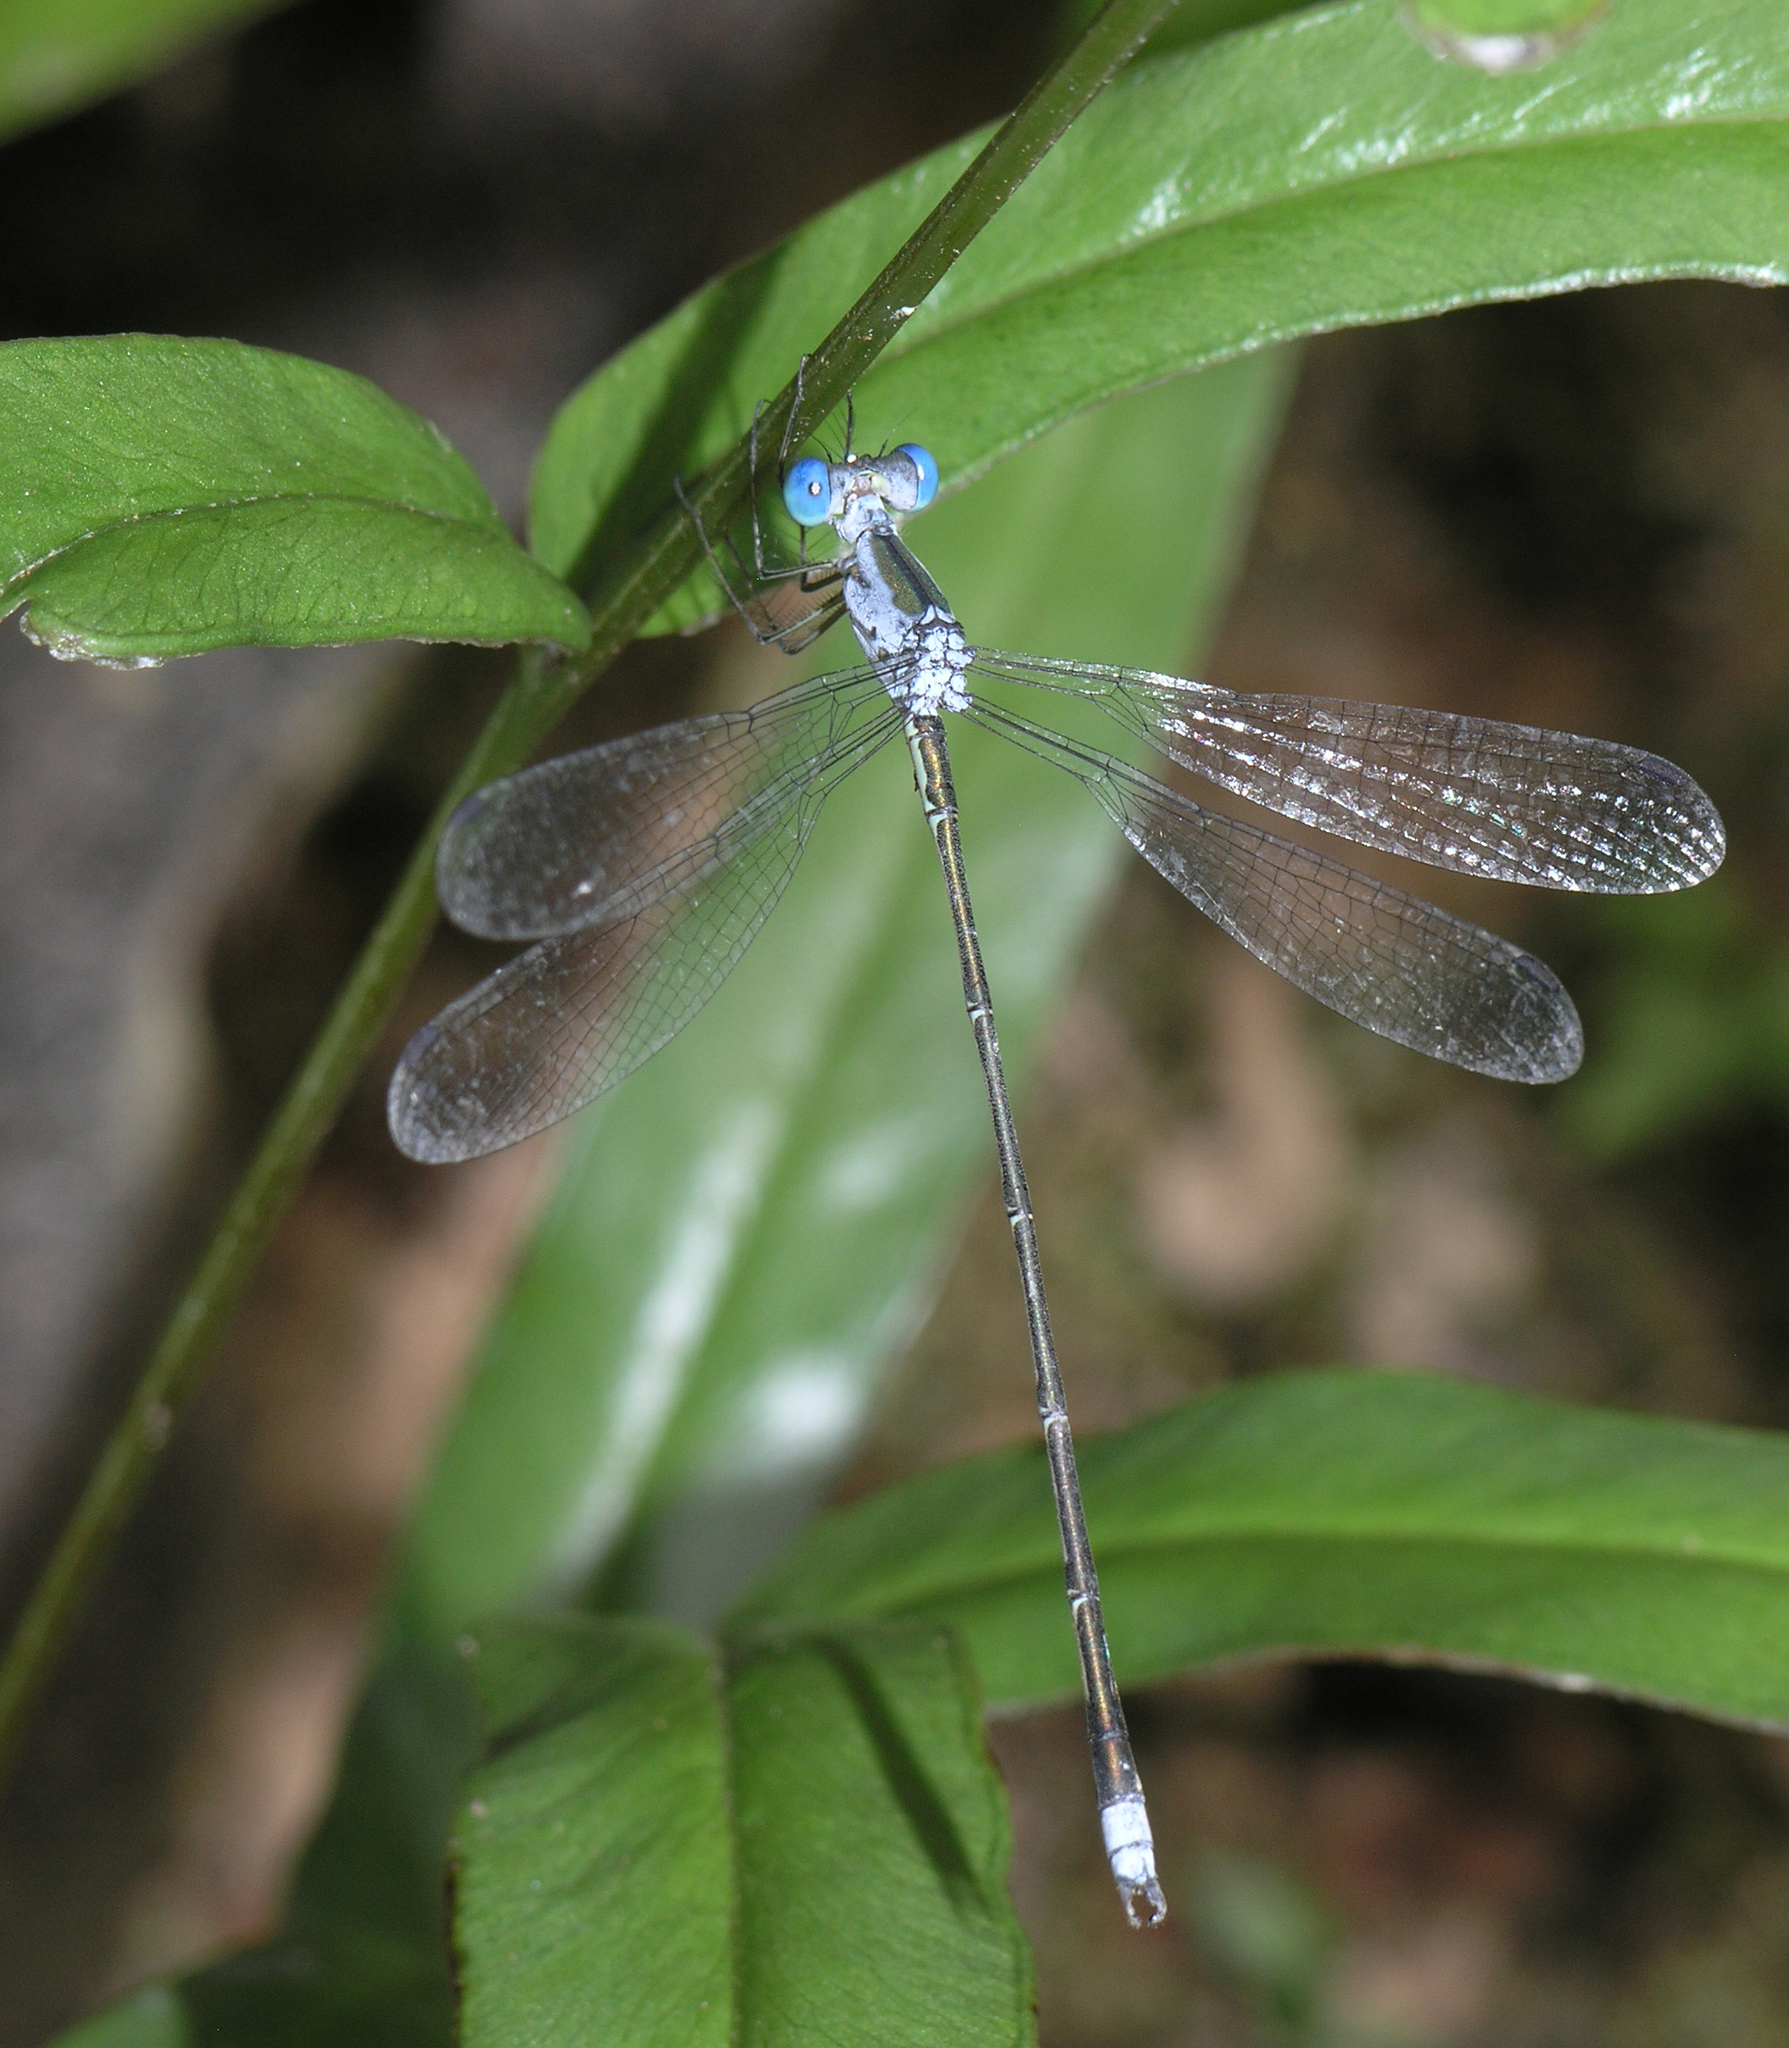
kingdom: Animalia
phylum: Arthropoda
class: Insecta
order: Odonata
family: Lestidae
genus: Lestes
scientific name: Lestes elatus
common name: Emerald spreadwing
